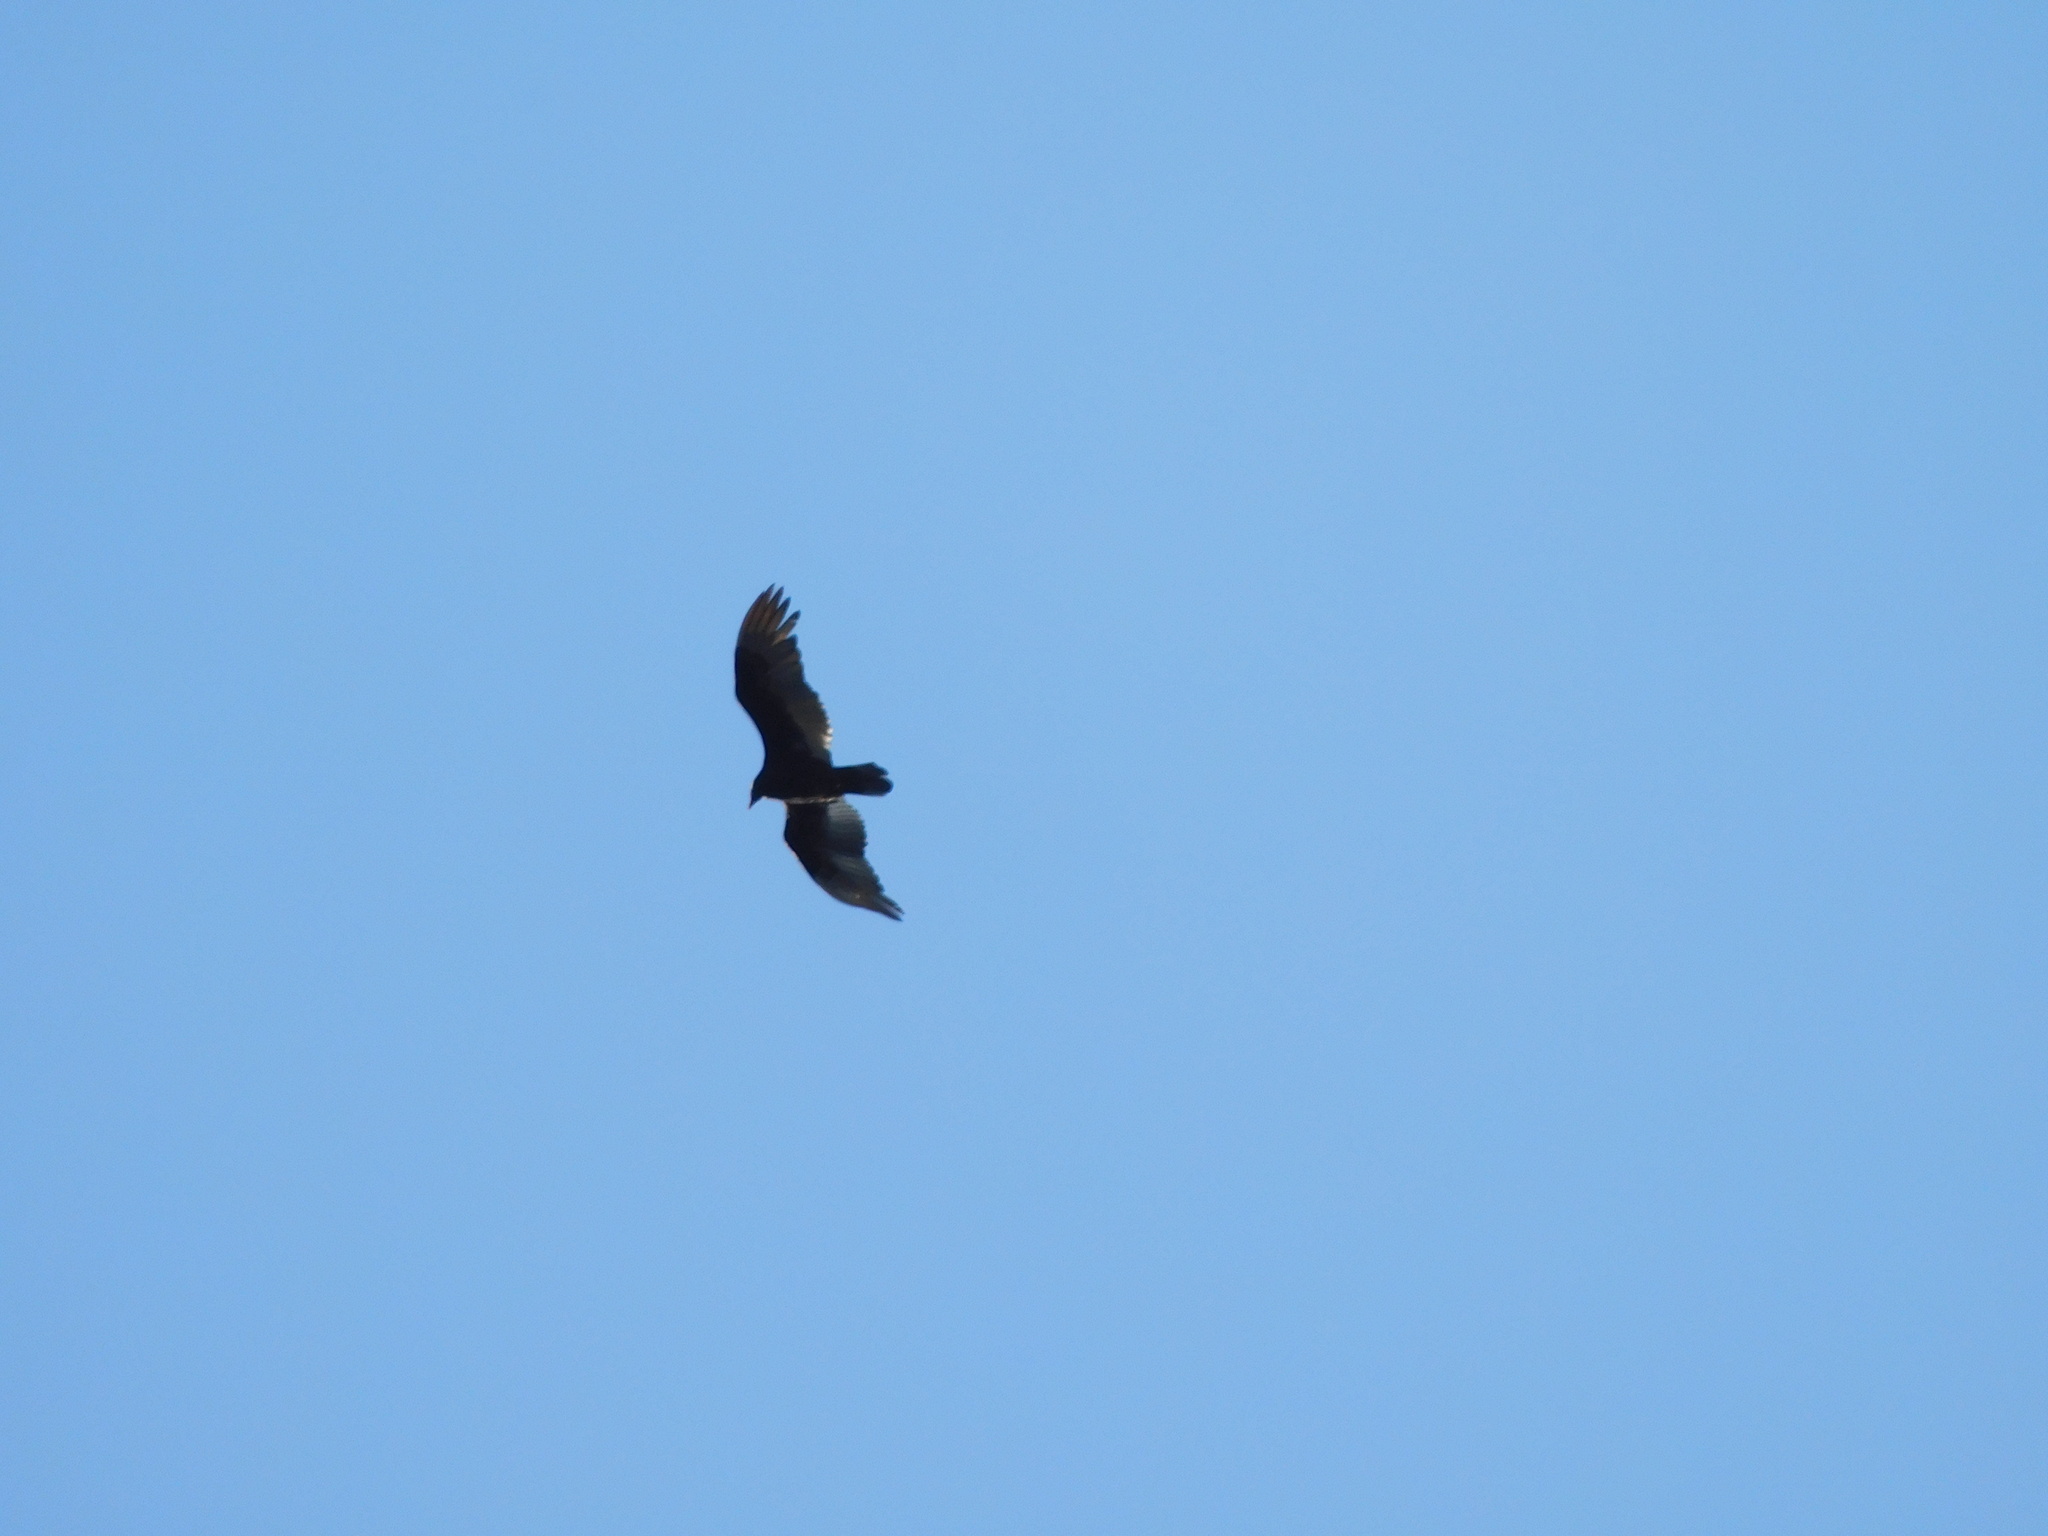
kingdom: Animalia
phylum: Chordata
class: Aves
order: Accipitriformes
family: Cathartidae
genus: Cathartes
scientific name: Cathartes aura
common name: Turkey vulture
